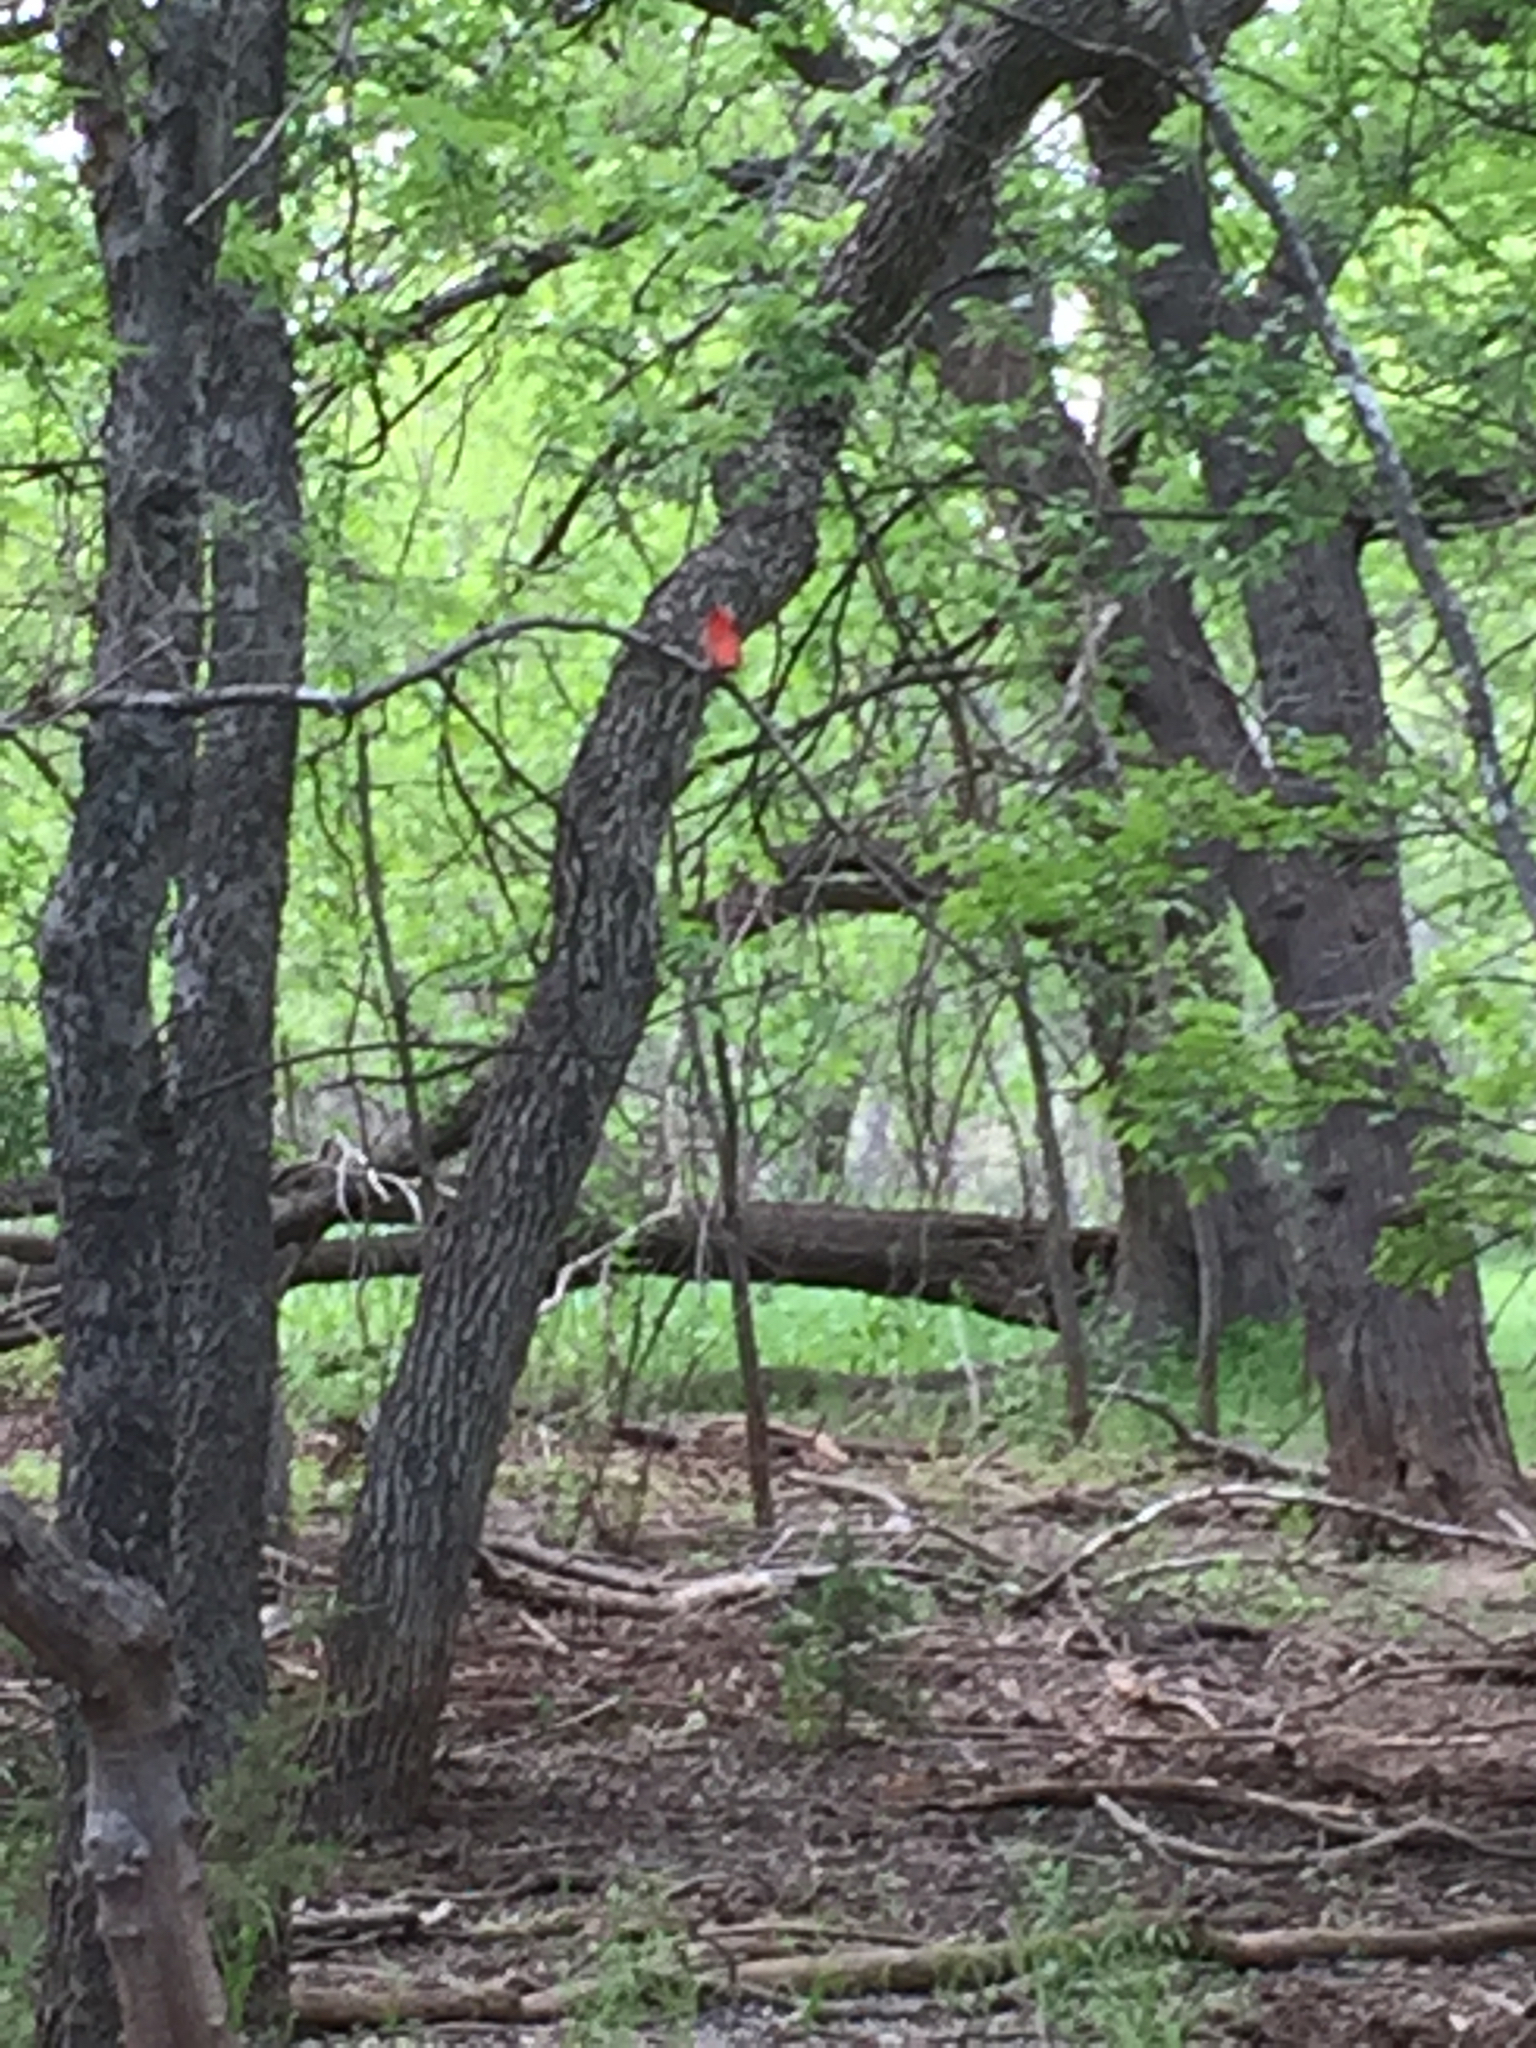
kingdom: Animalia
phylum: Chordata
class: Aves
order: Passeriformes
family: Cardinalidae
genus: Piranga
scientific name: Piranga rubra
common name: Summer tanager
